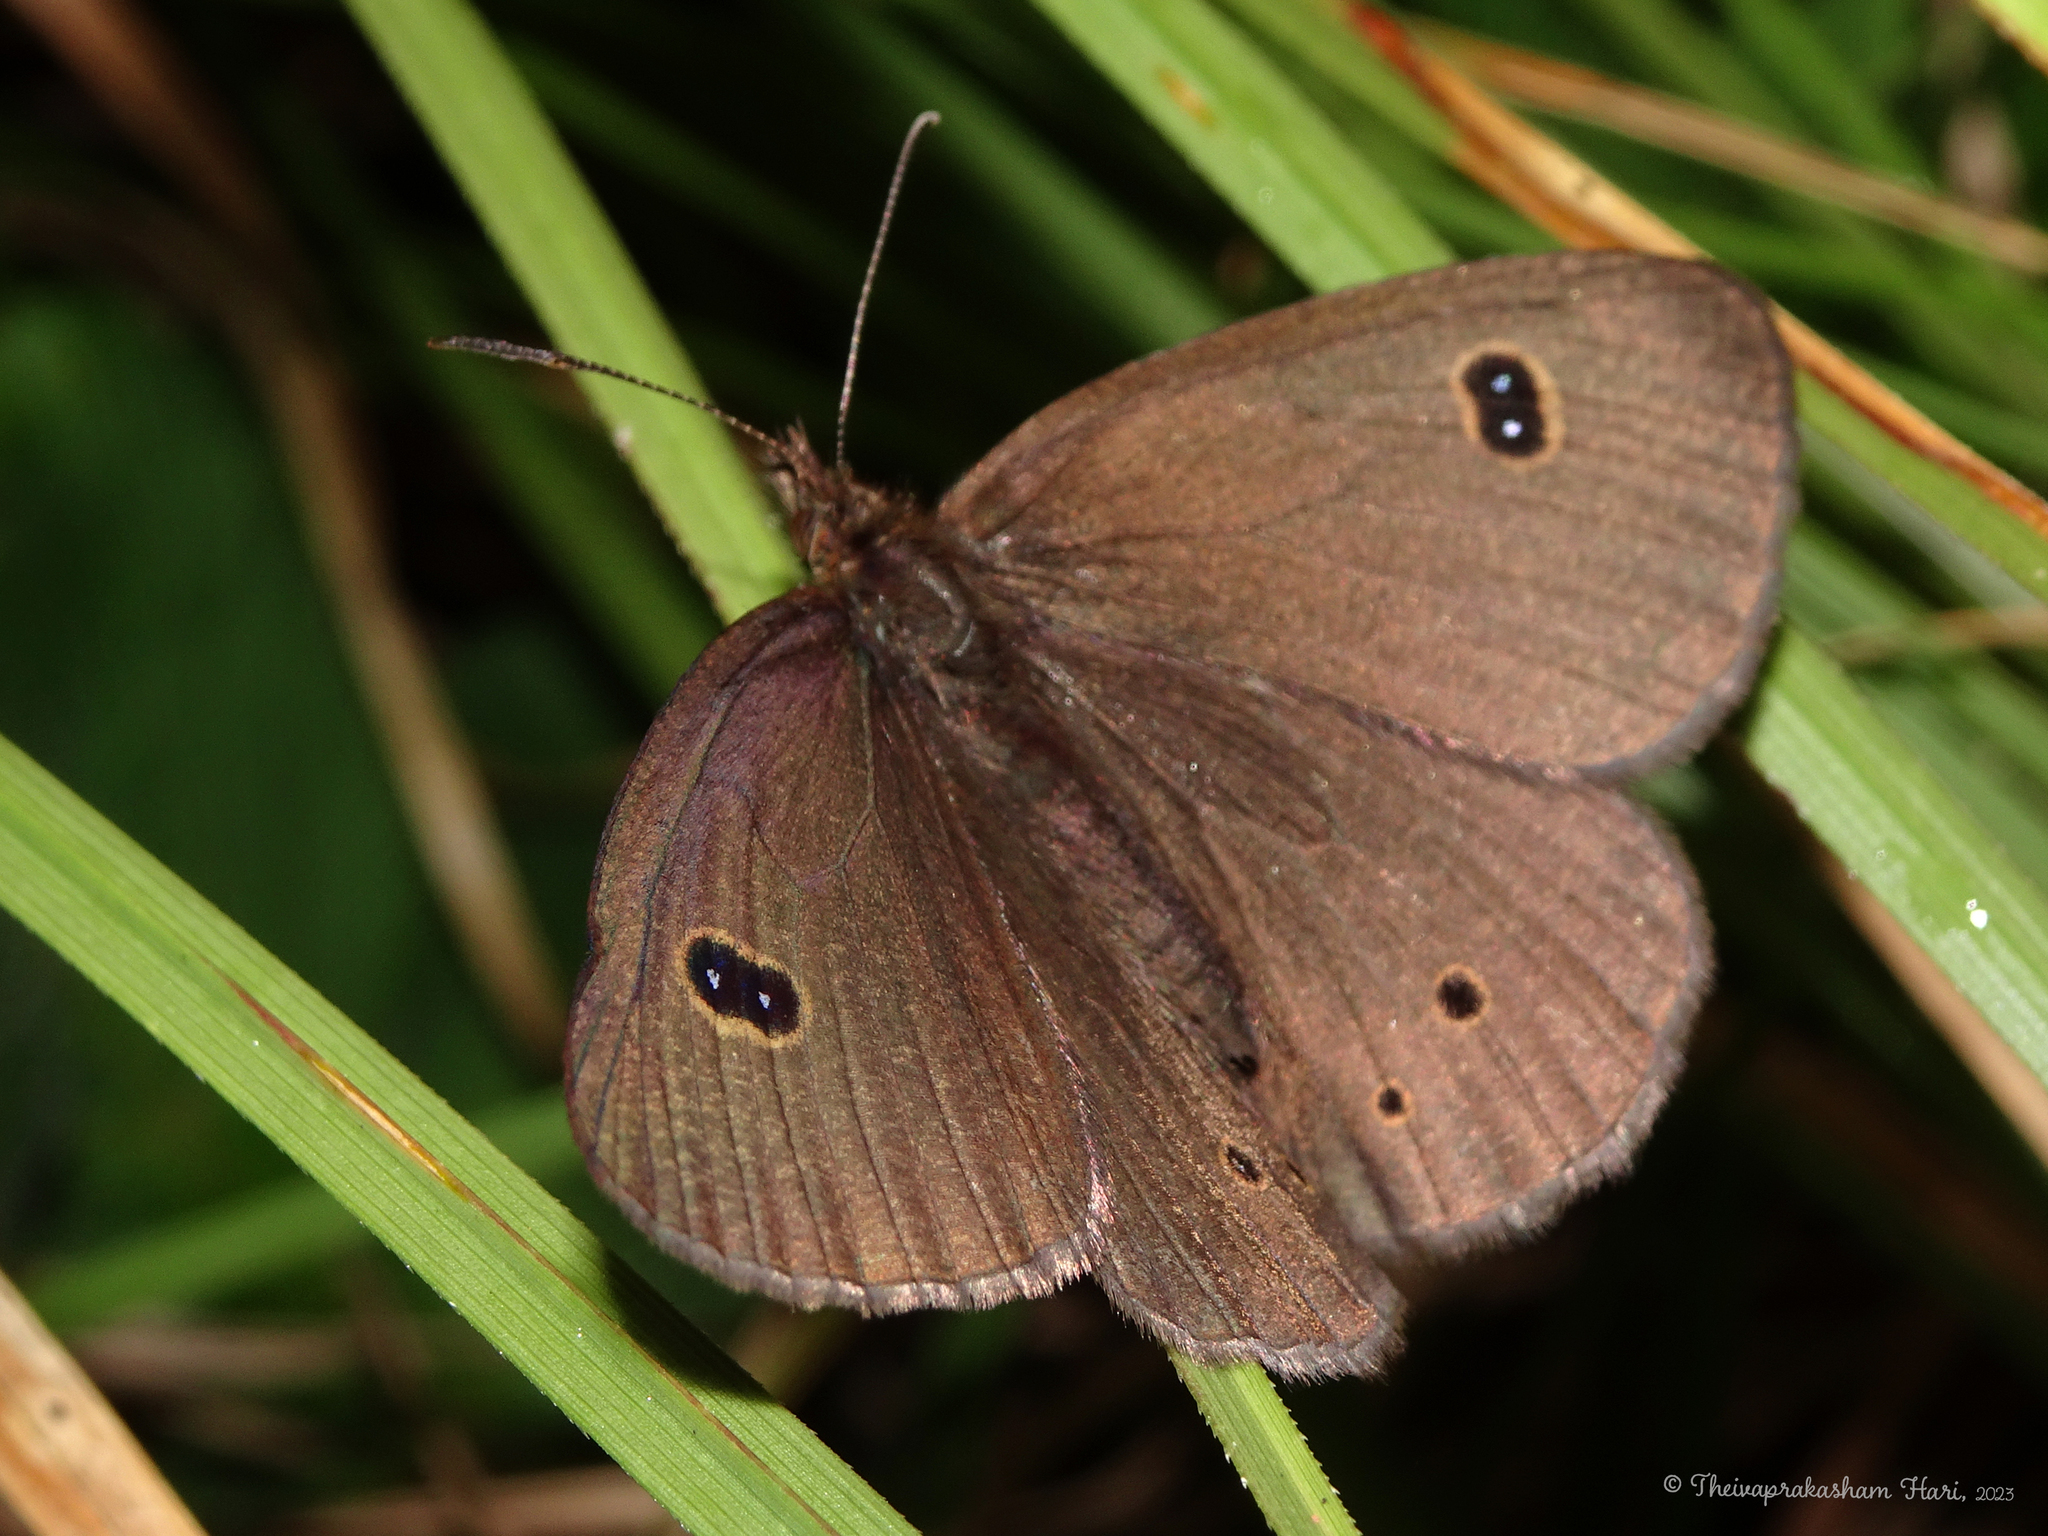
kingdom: Animalia
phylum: Arthropoda
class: Insecta
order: Lepidoptera
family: Nymphalidae
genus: Ypthima
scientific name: Ypthima ypthimoides
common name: Palni four-ring
